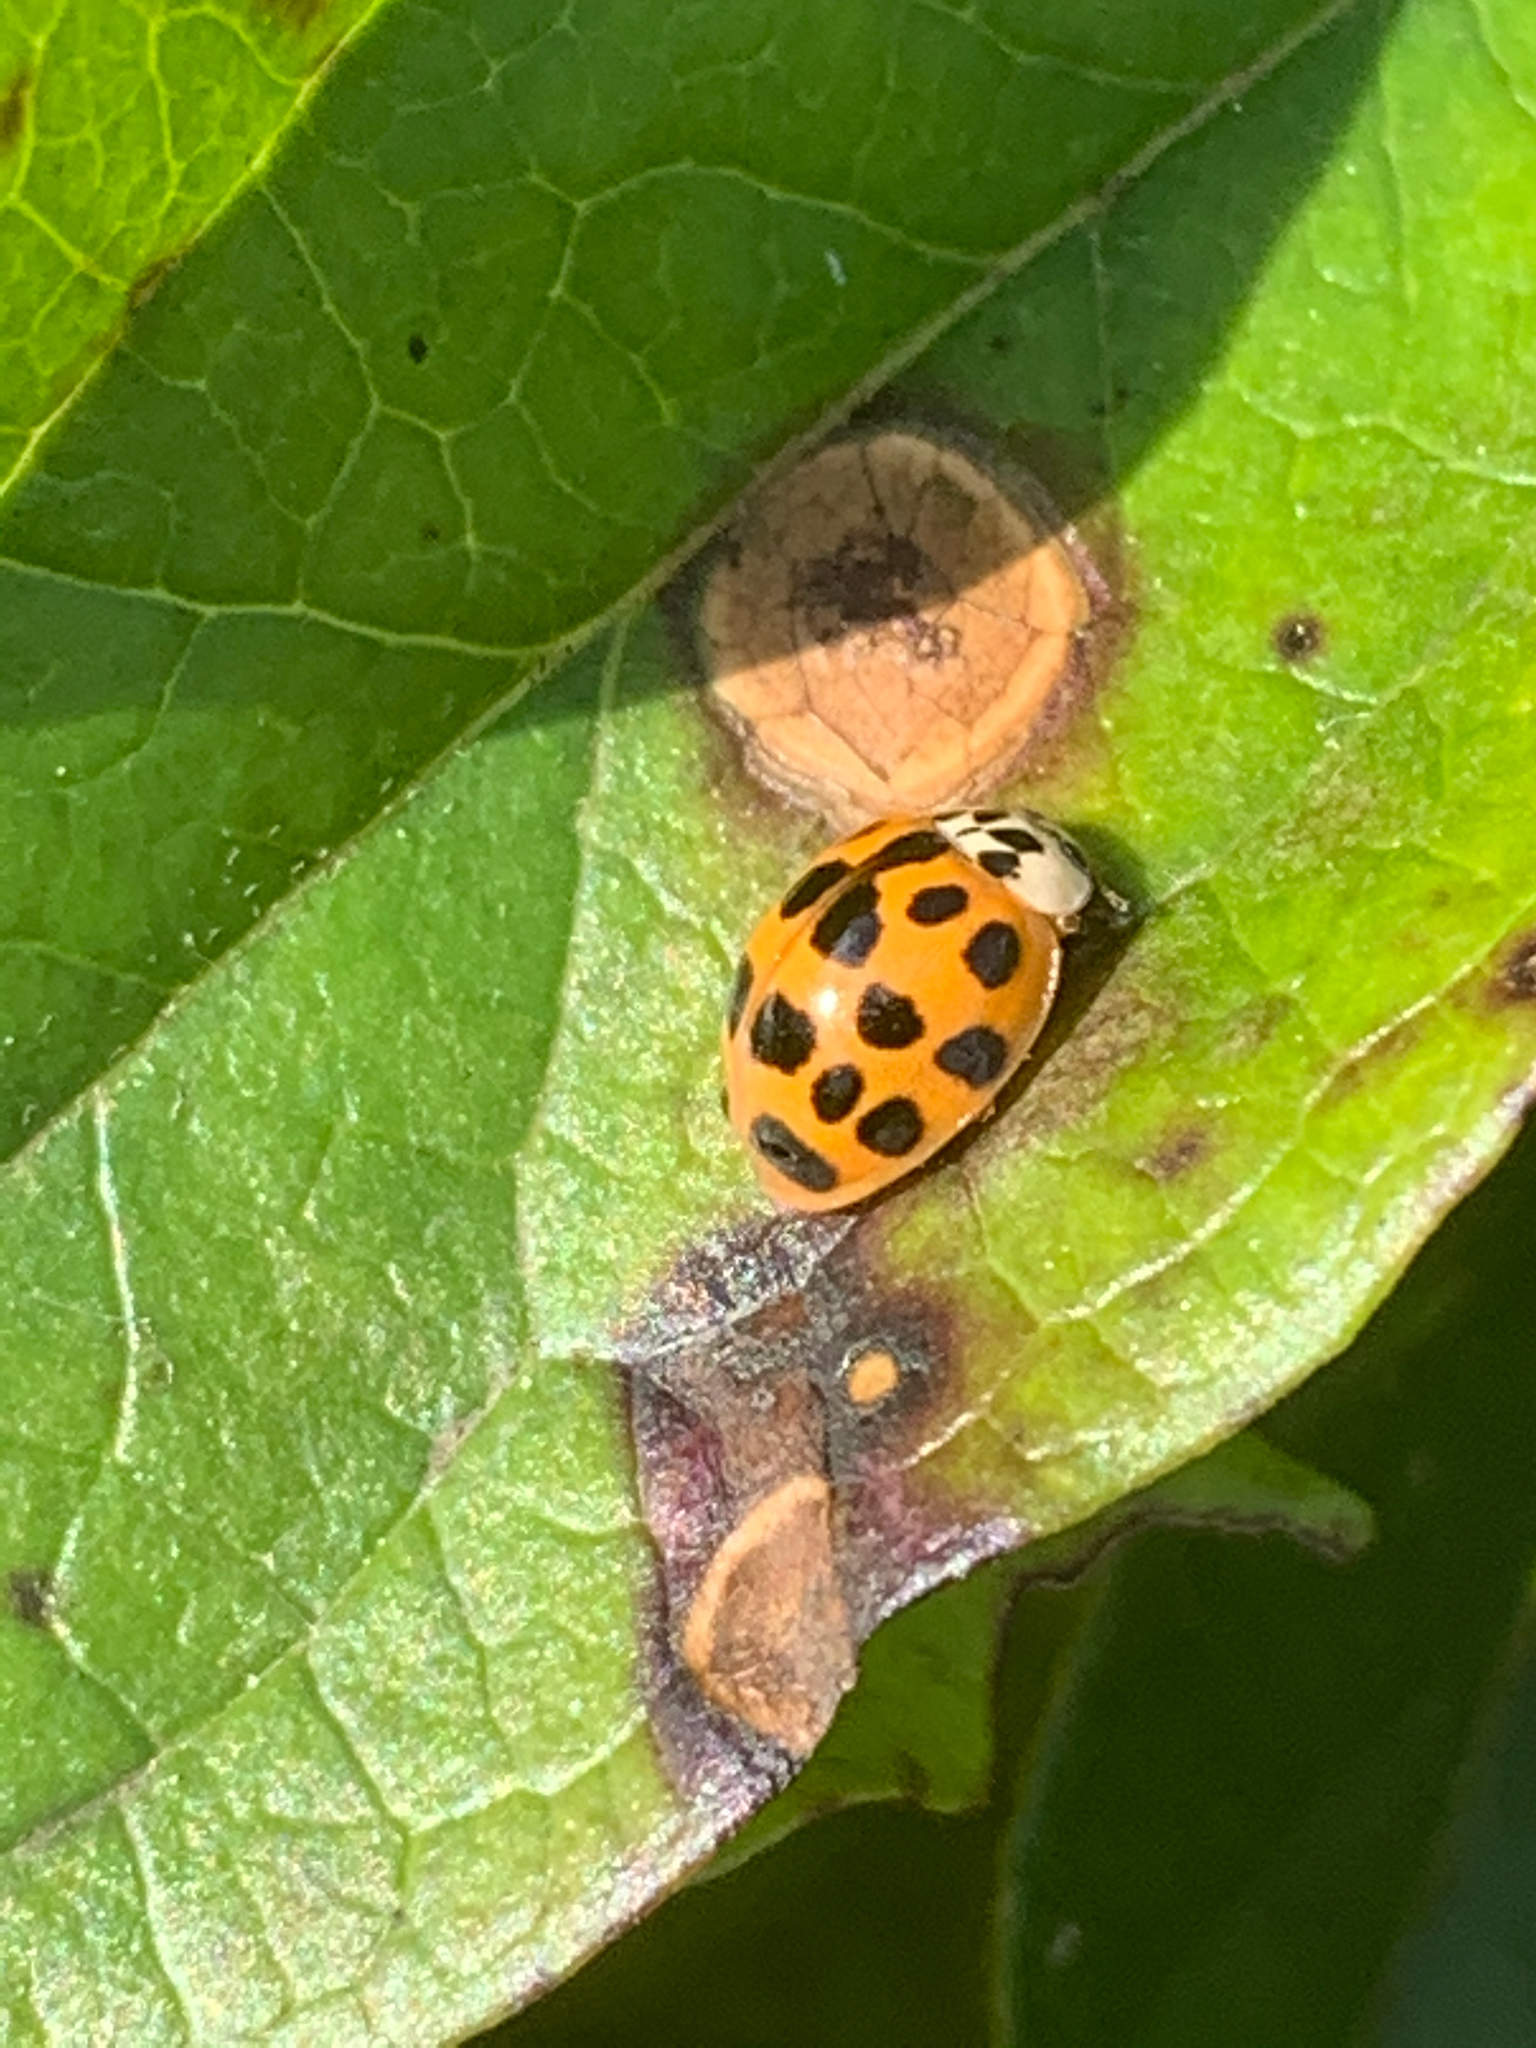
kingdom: Animalia
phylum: Arthropoda
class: Insecta
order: Coleoptera
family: Coccinellidae
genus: Harmonia
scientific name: Harmonia axyridis
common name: Harlequin ladybird
